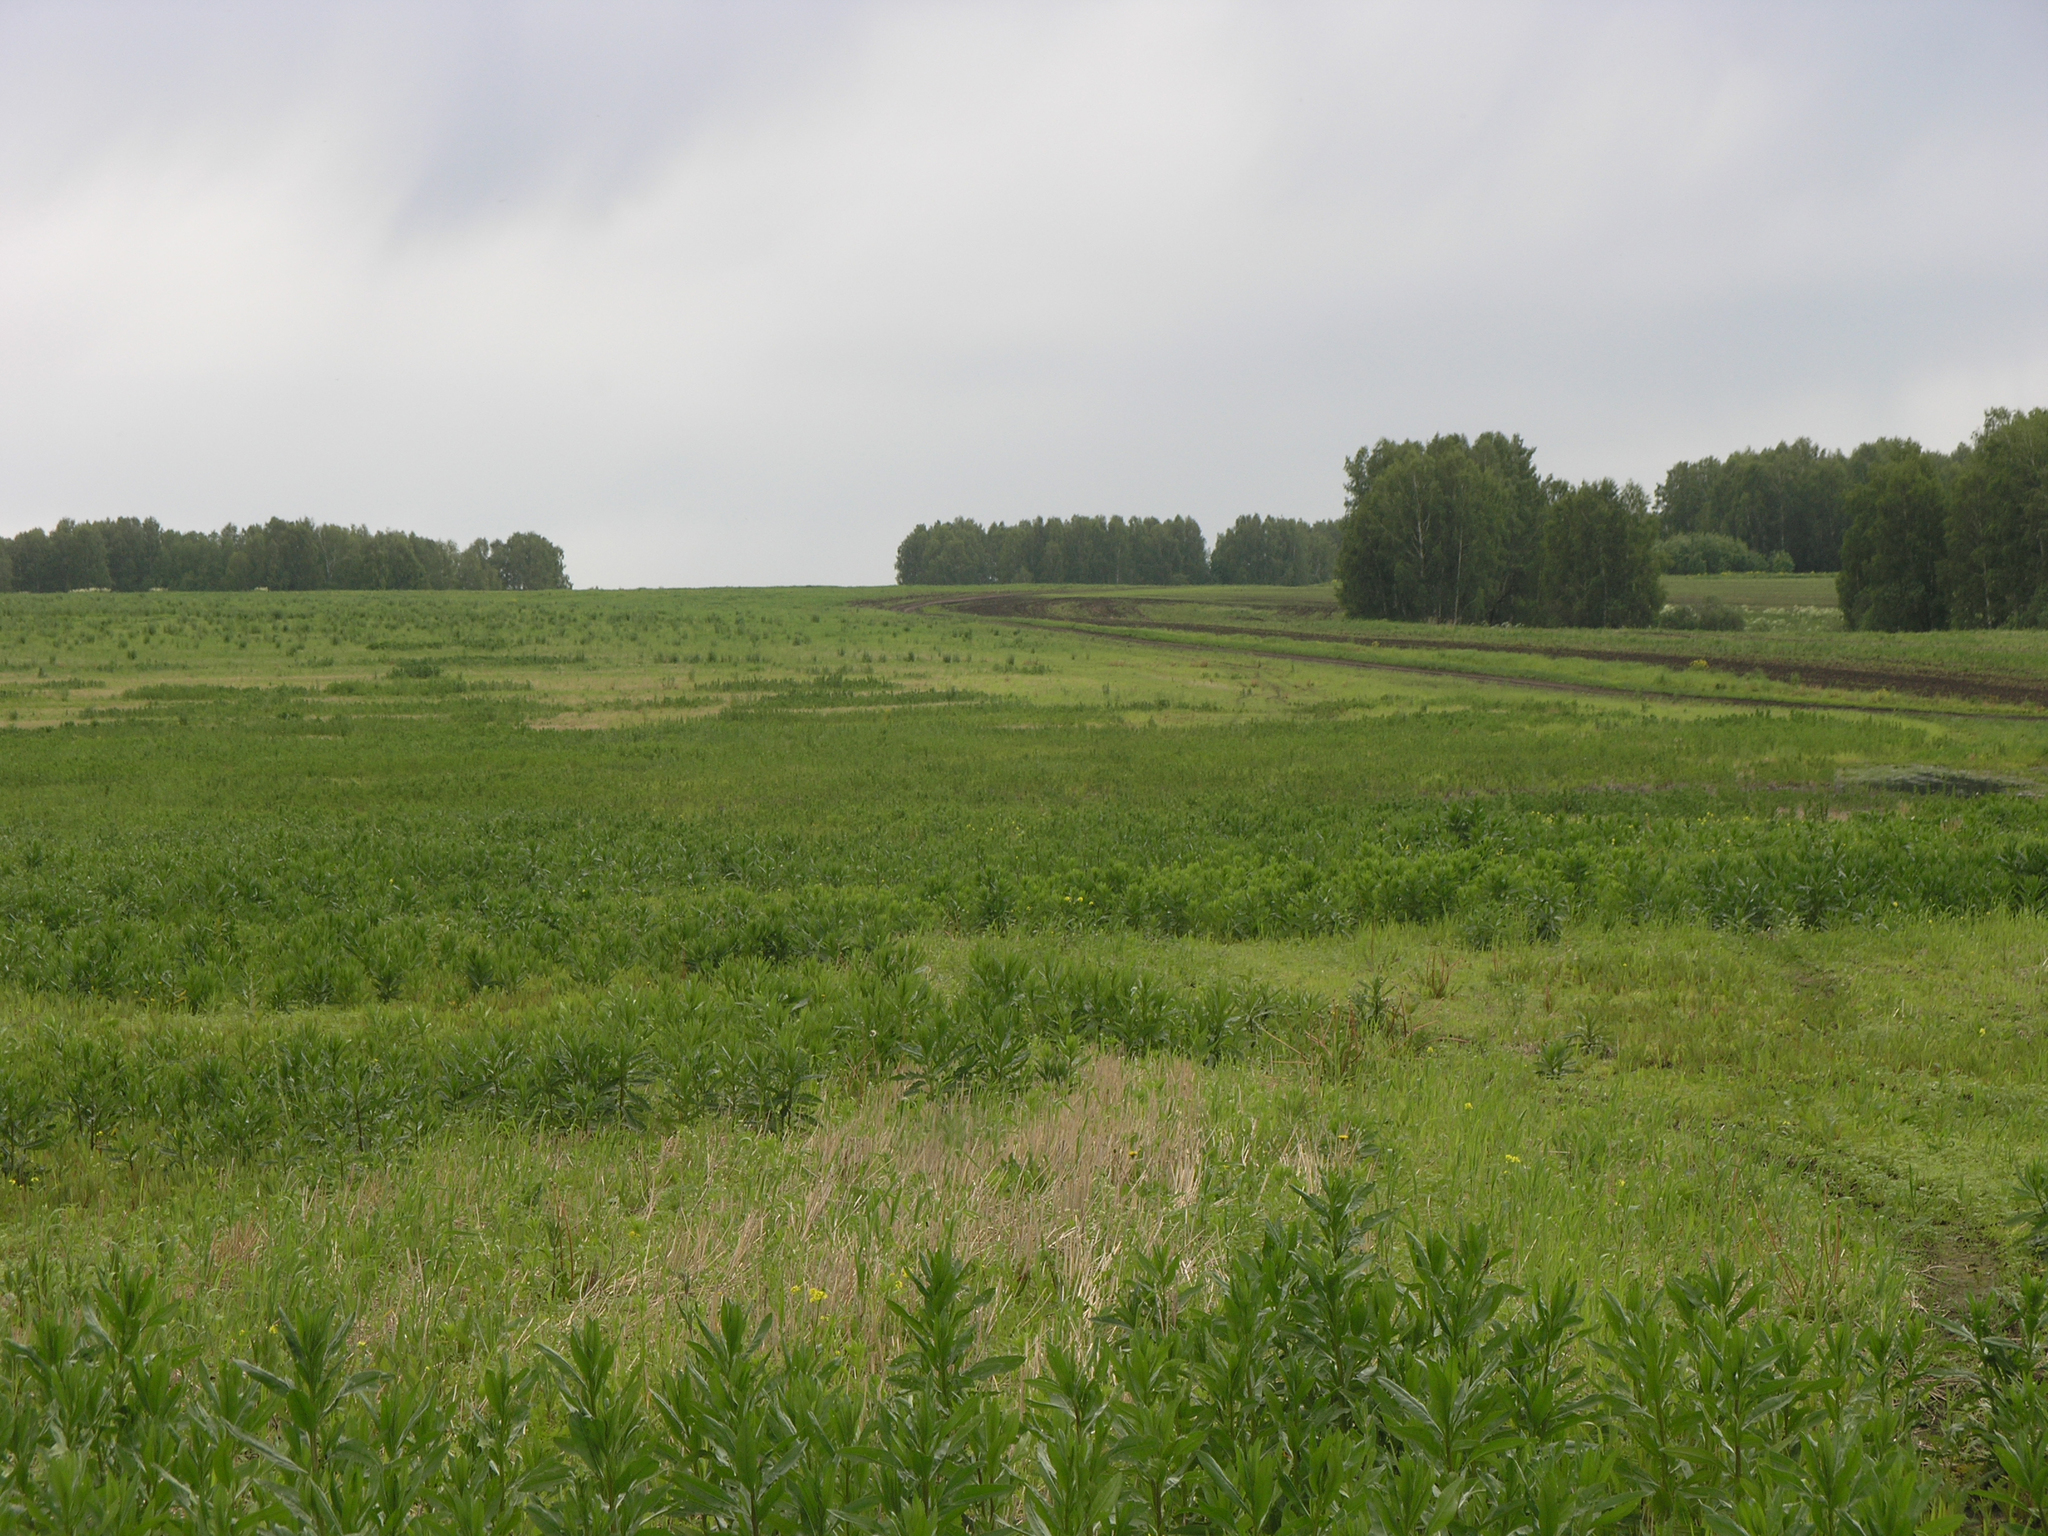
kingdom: Plantae
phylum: Tracheophyta
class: Magnoliopsida
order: Fagales
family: Betulaceae
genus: Betula
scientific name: Betula pendula
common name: Silver birch
